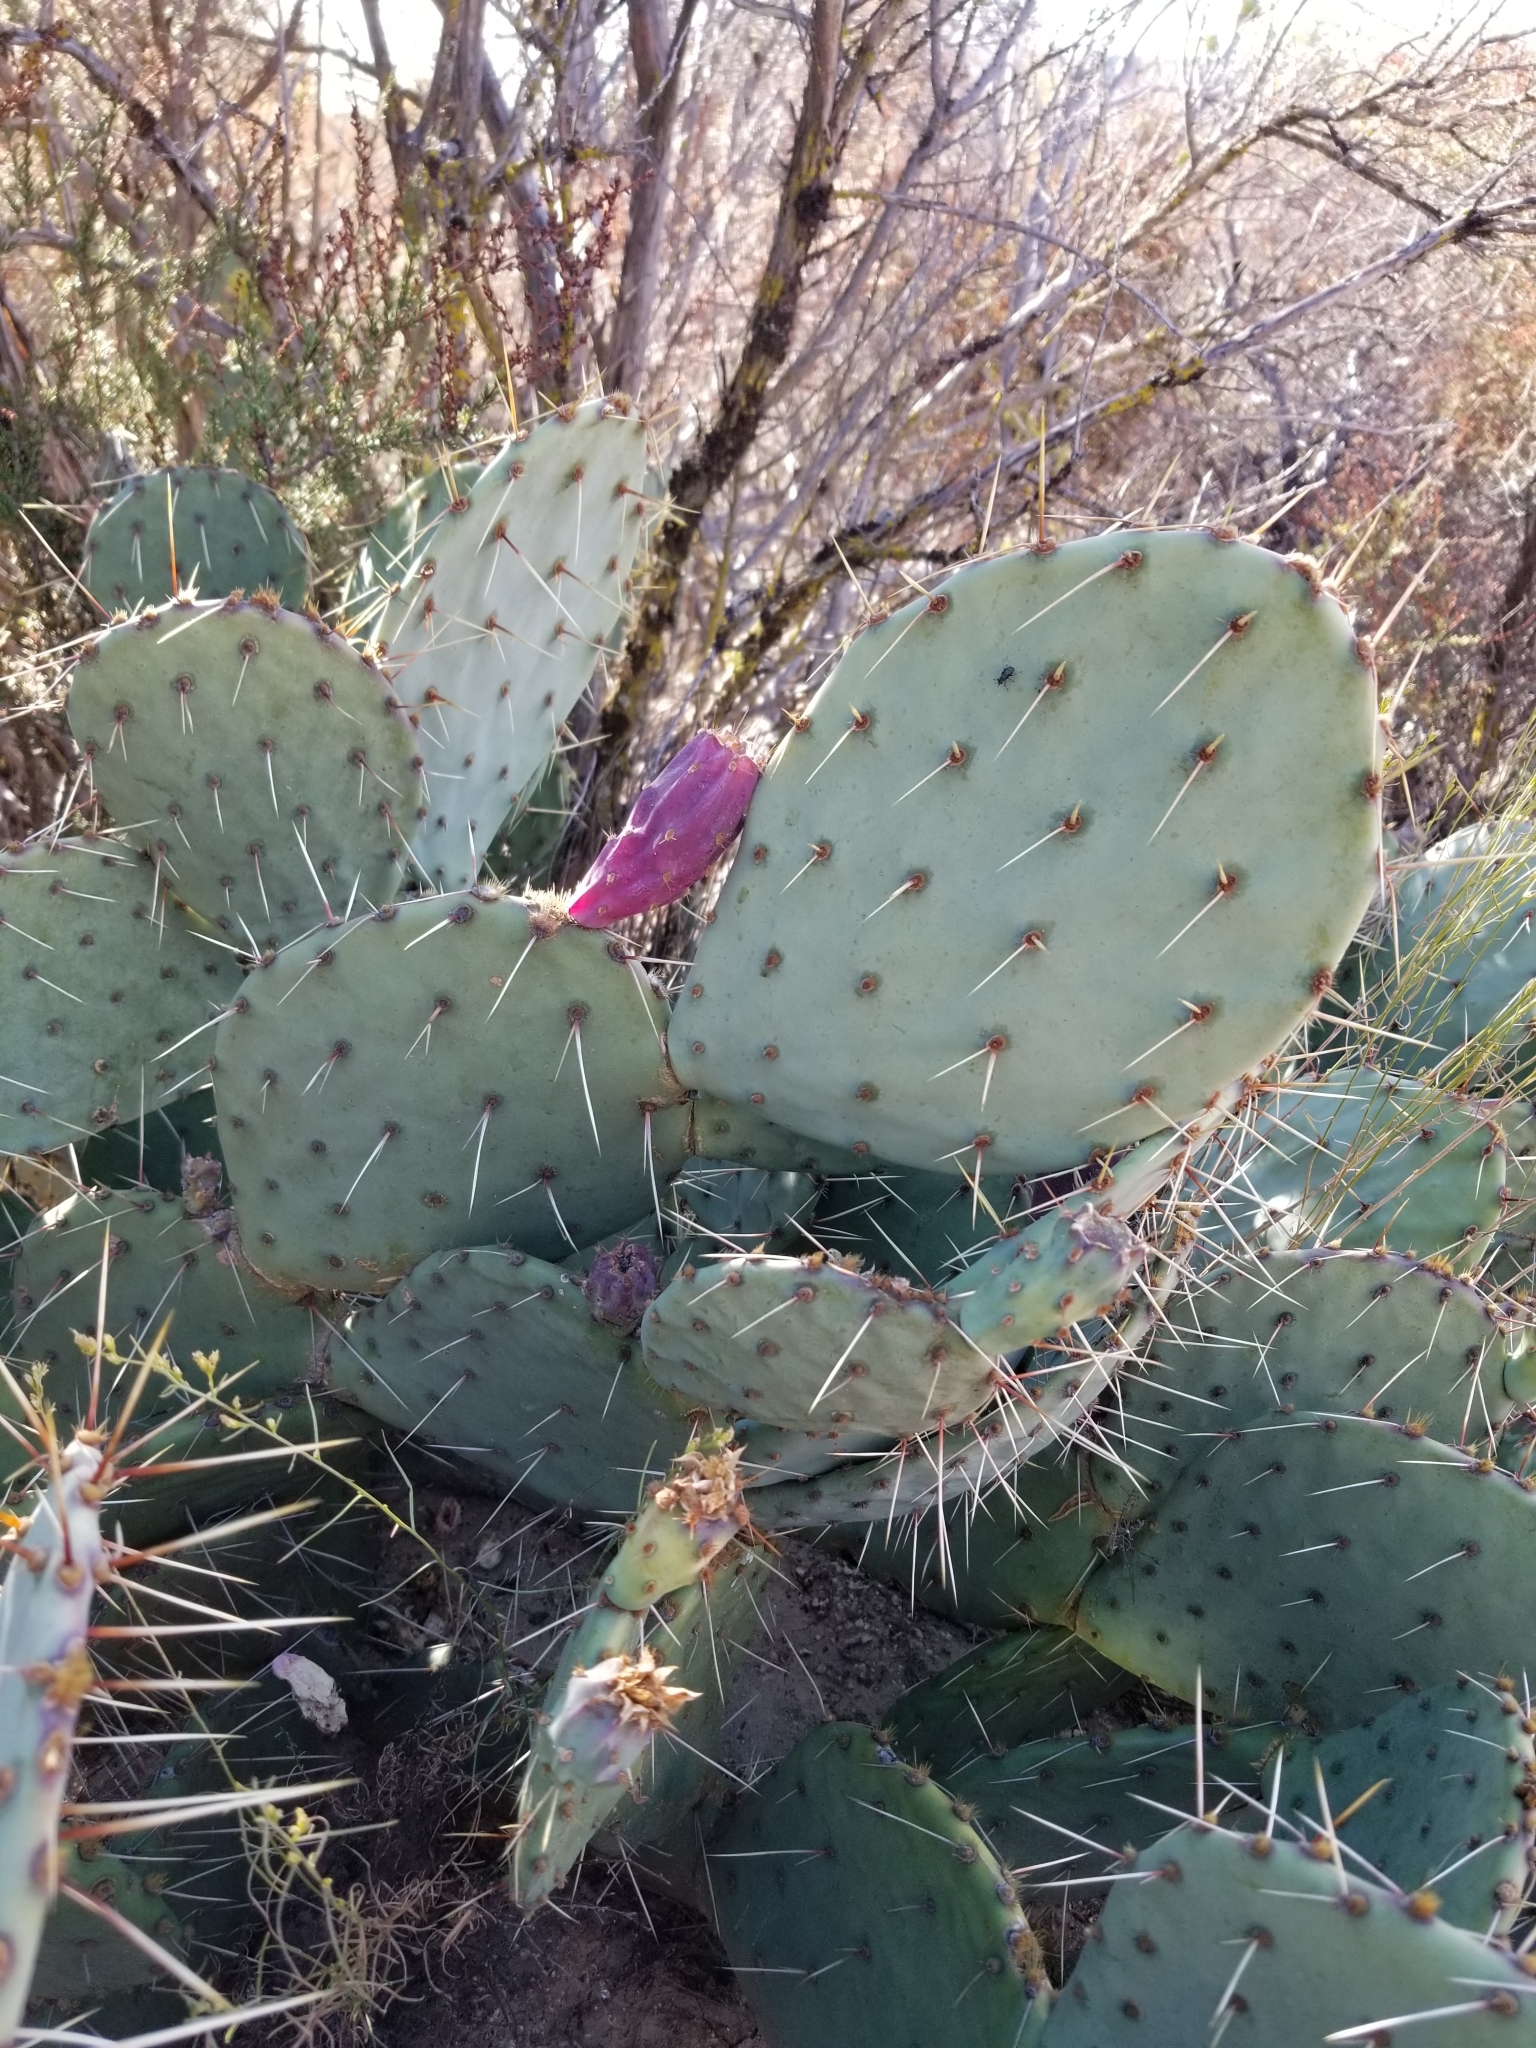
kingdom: Plantae
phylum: Tracheophyta
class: Magnoliopsida
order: Caryophyllales
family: Cactaceae
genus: Opuntia
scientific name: Opuntia phaeacantha
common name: New mexico prickly-pear
